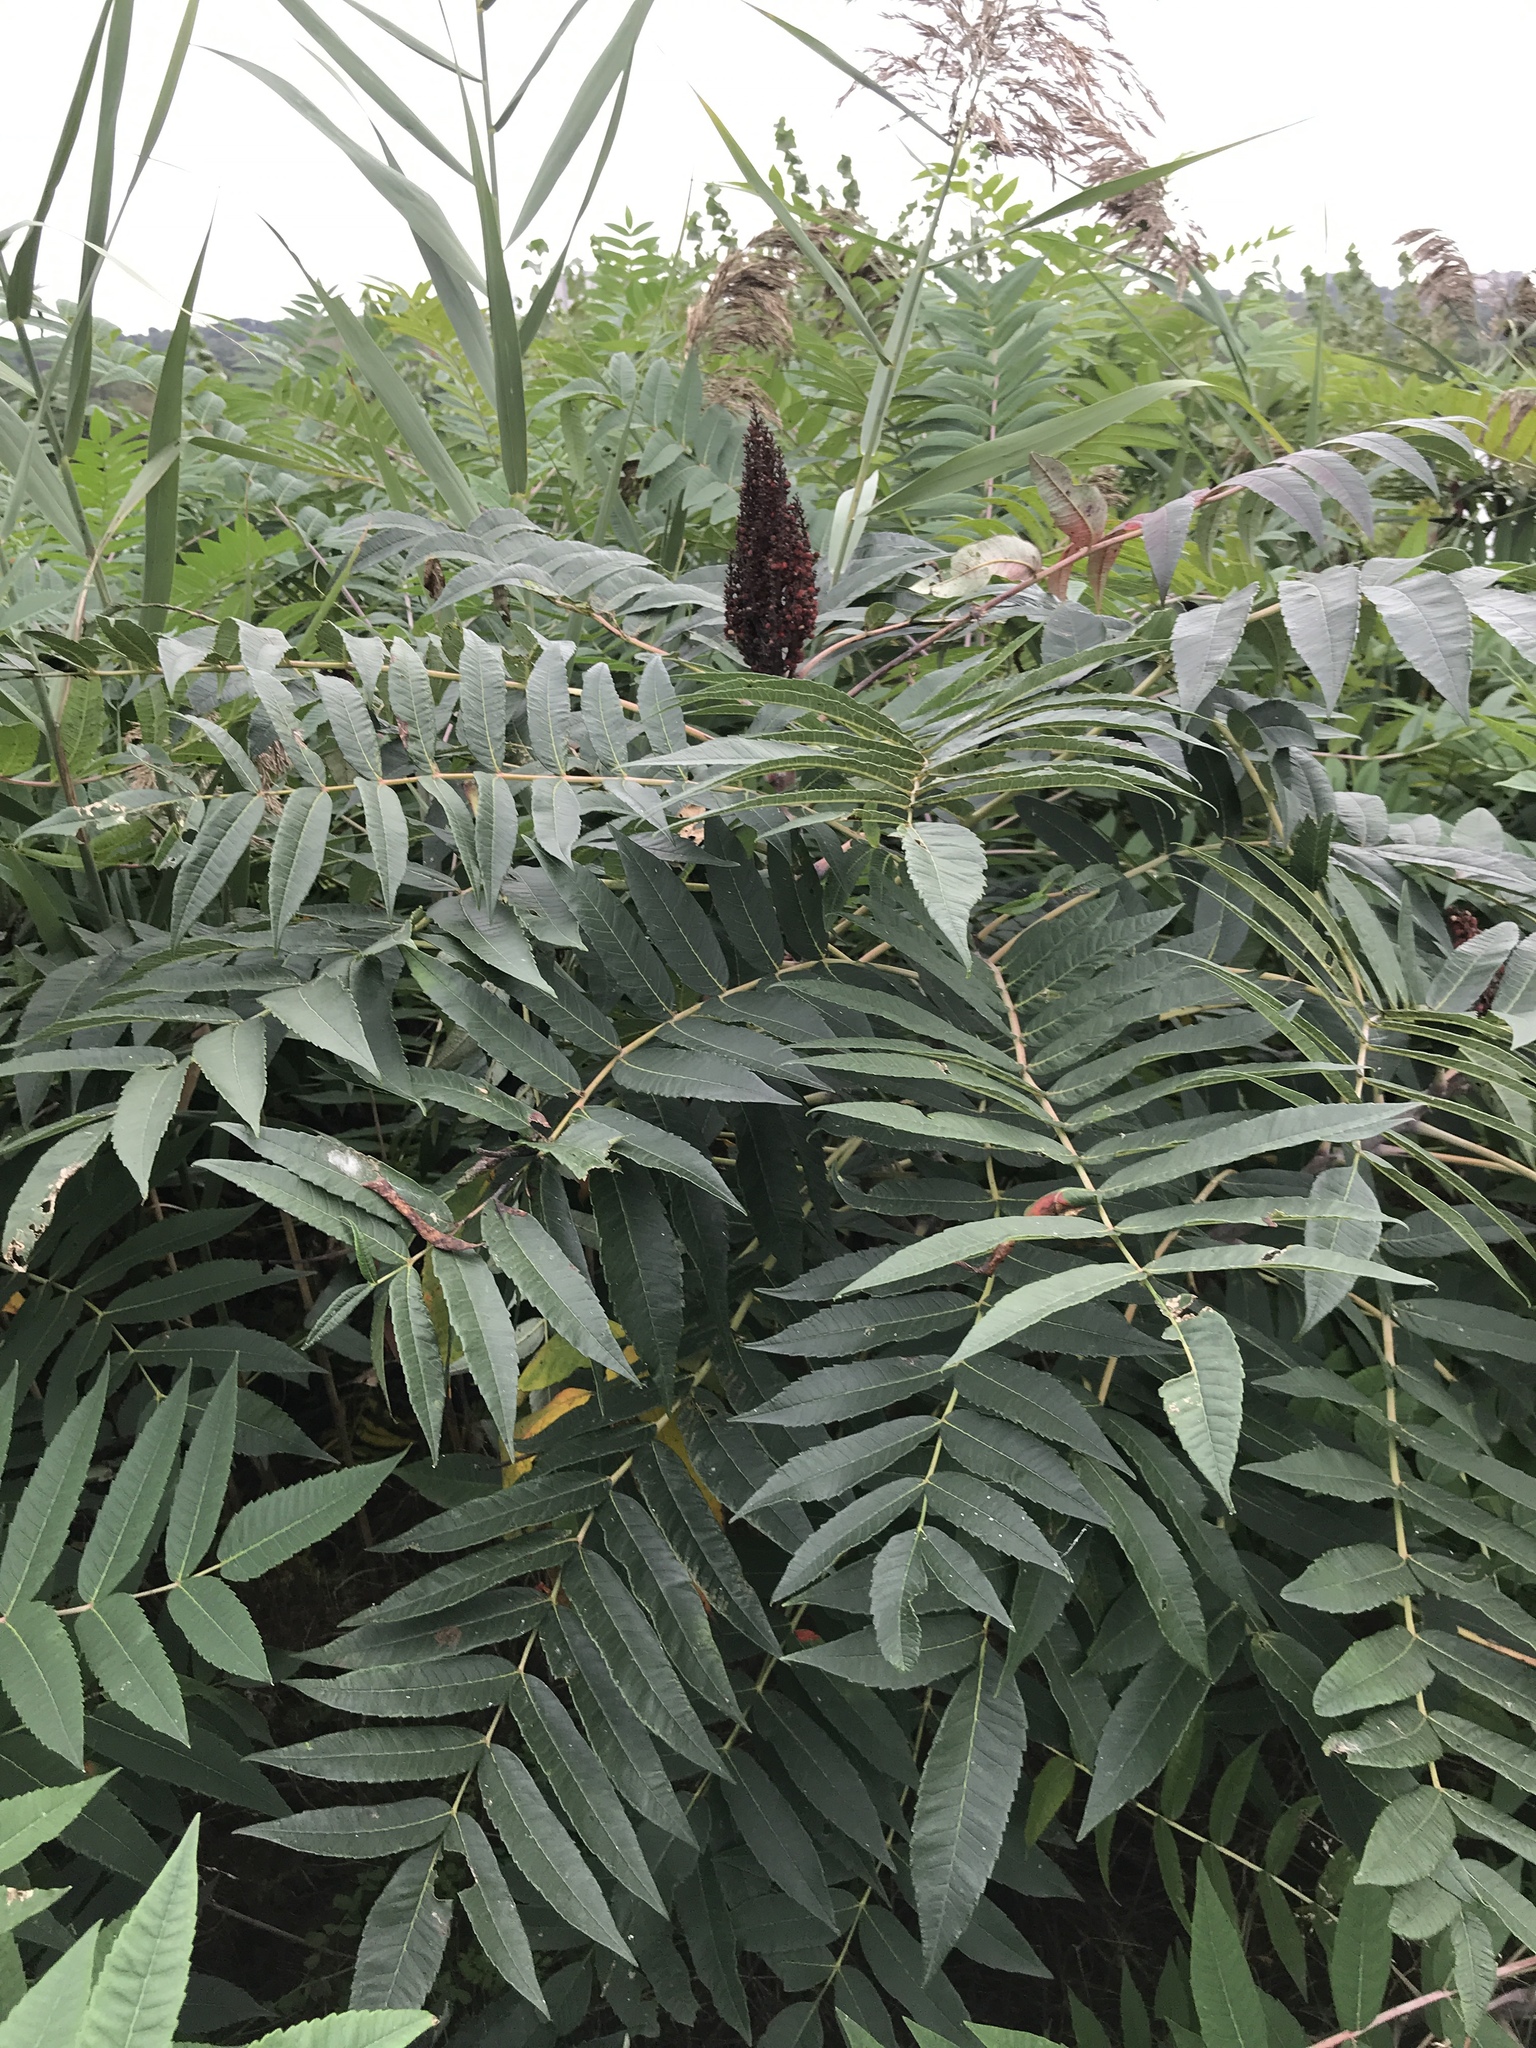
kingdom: Plantae
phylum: Tracheophyta
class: Magnoliopsida
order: Sapindales
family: Anacardiaceae
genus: Rhus
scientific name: Rhus glabra
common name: Scarlet sumac
